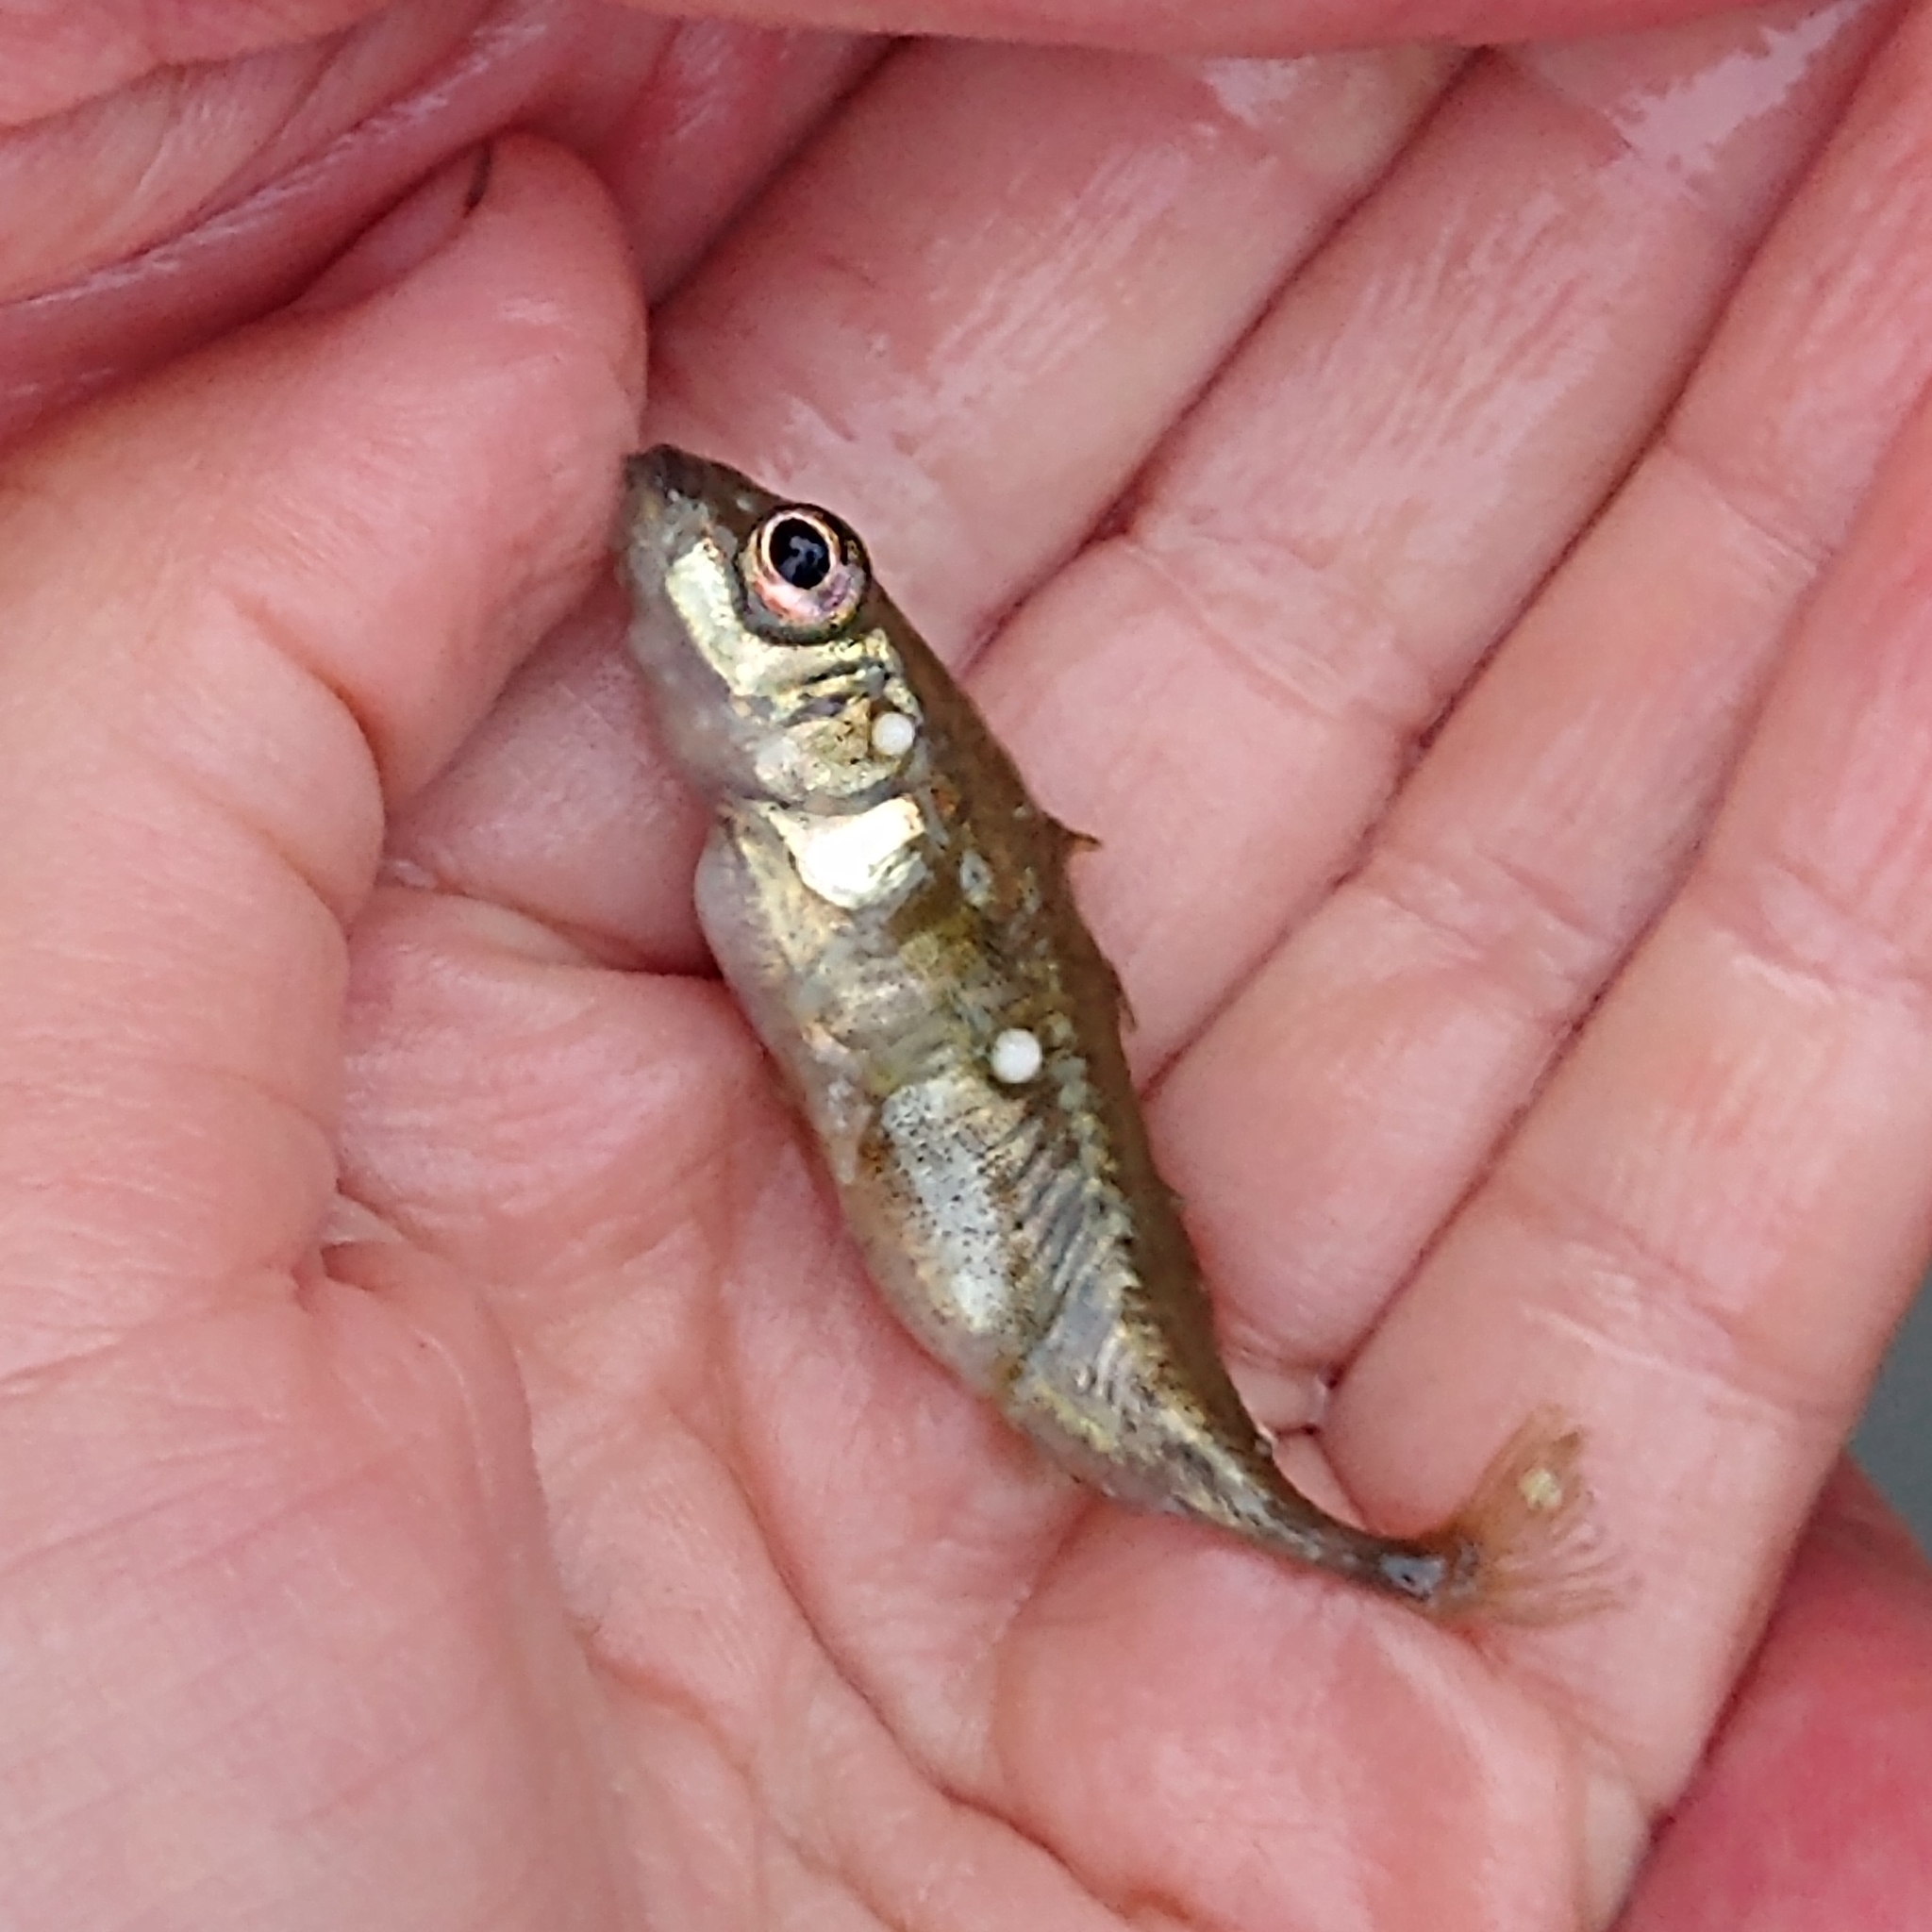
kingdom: Animalia
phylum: Chordata
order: Gasterosteiformes
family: Gasterosteidae
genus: Gasterosteus
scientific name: Gasterosteus aculeatus
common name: Three-spined stickleback
